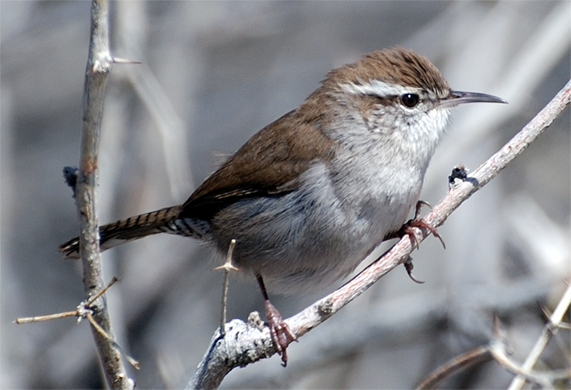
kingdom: Animalia
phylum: Chordata
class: Aves
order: Passeriformes
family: Troglodytidae
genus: Thryomanes
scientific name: Thryomanes bewickii
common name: Bewick's wren
